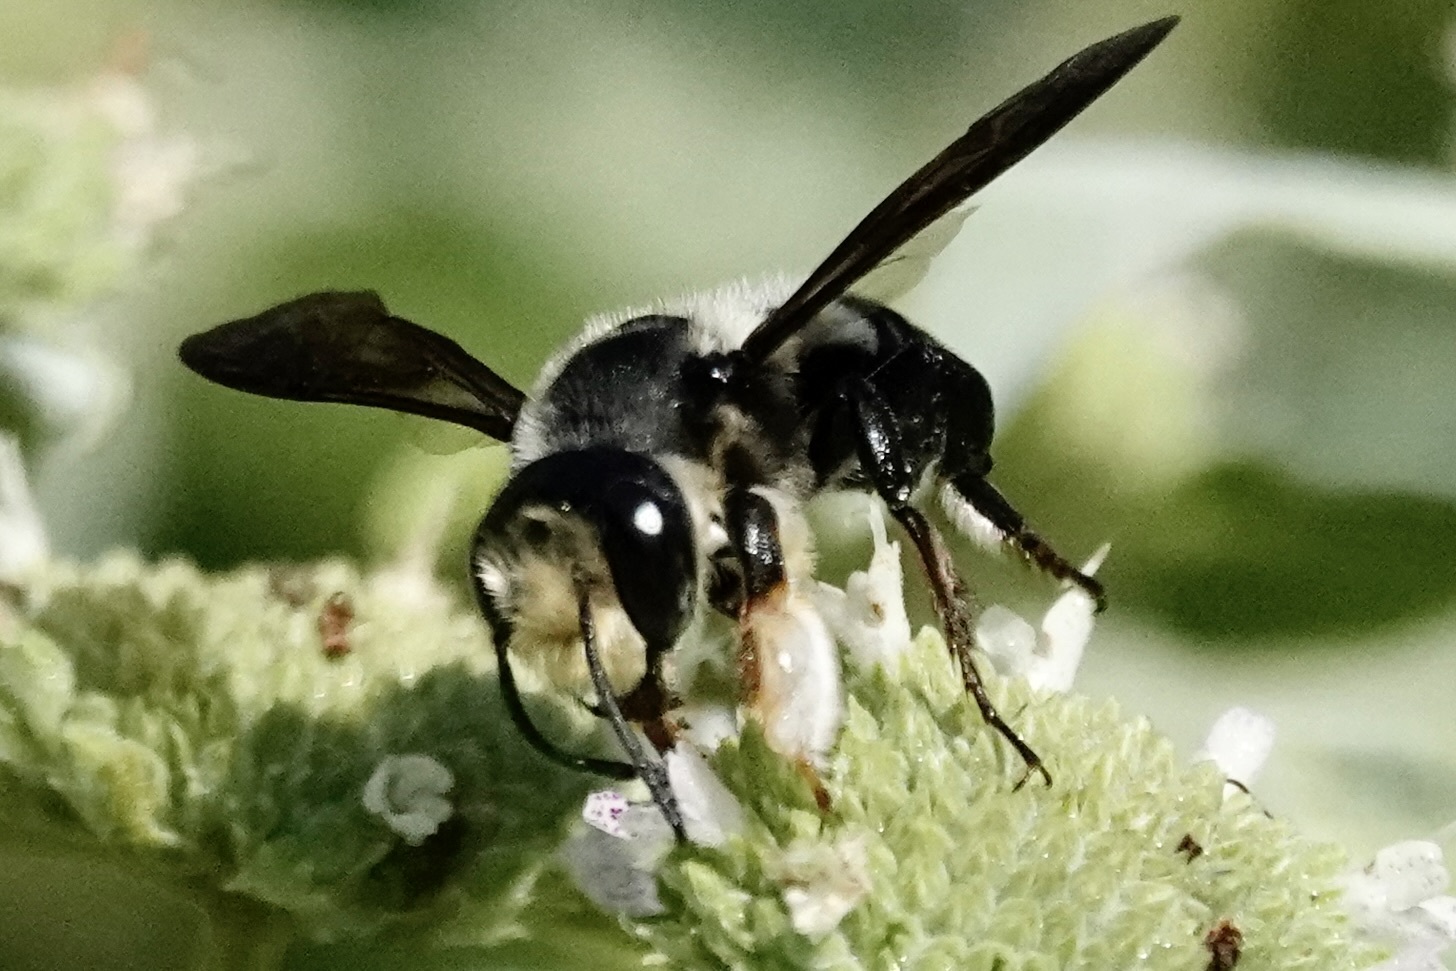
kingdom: Animalia
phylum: Arthropoda
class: Insecta
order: Hymenoptera
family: Megachilidae
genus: Megachile
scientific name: Megachile xylocopoides
